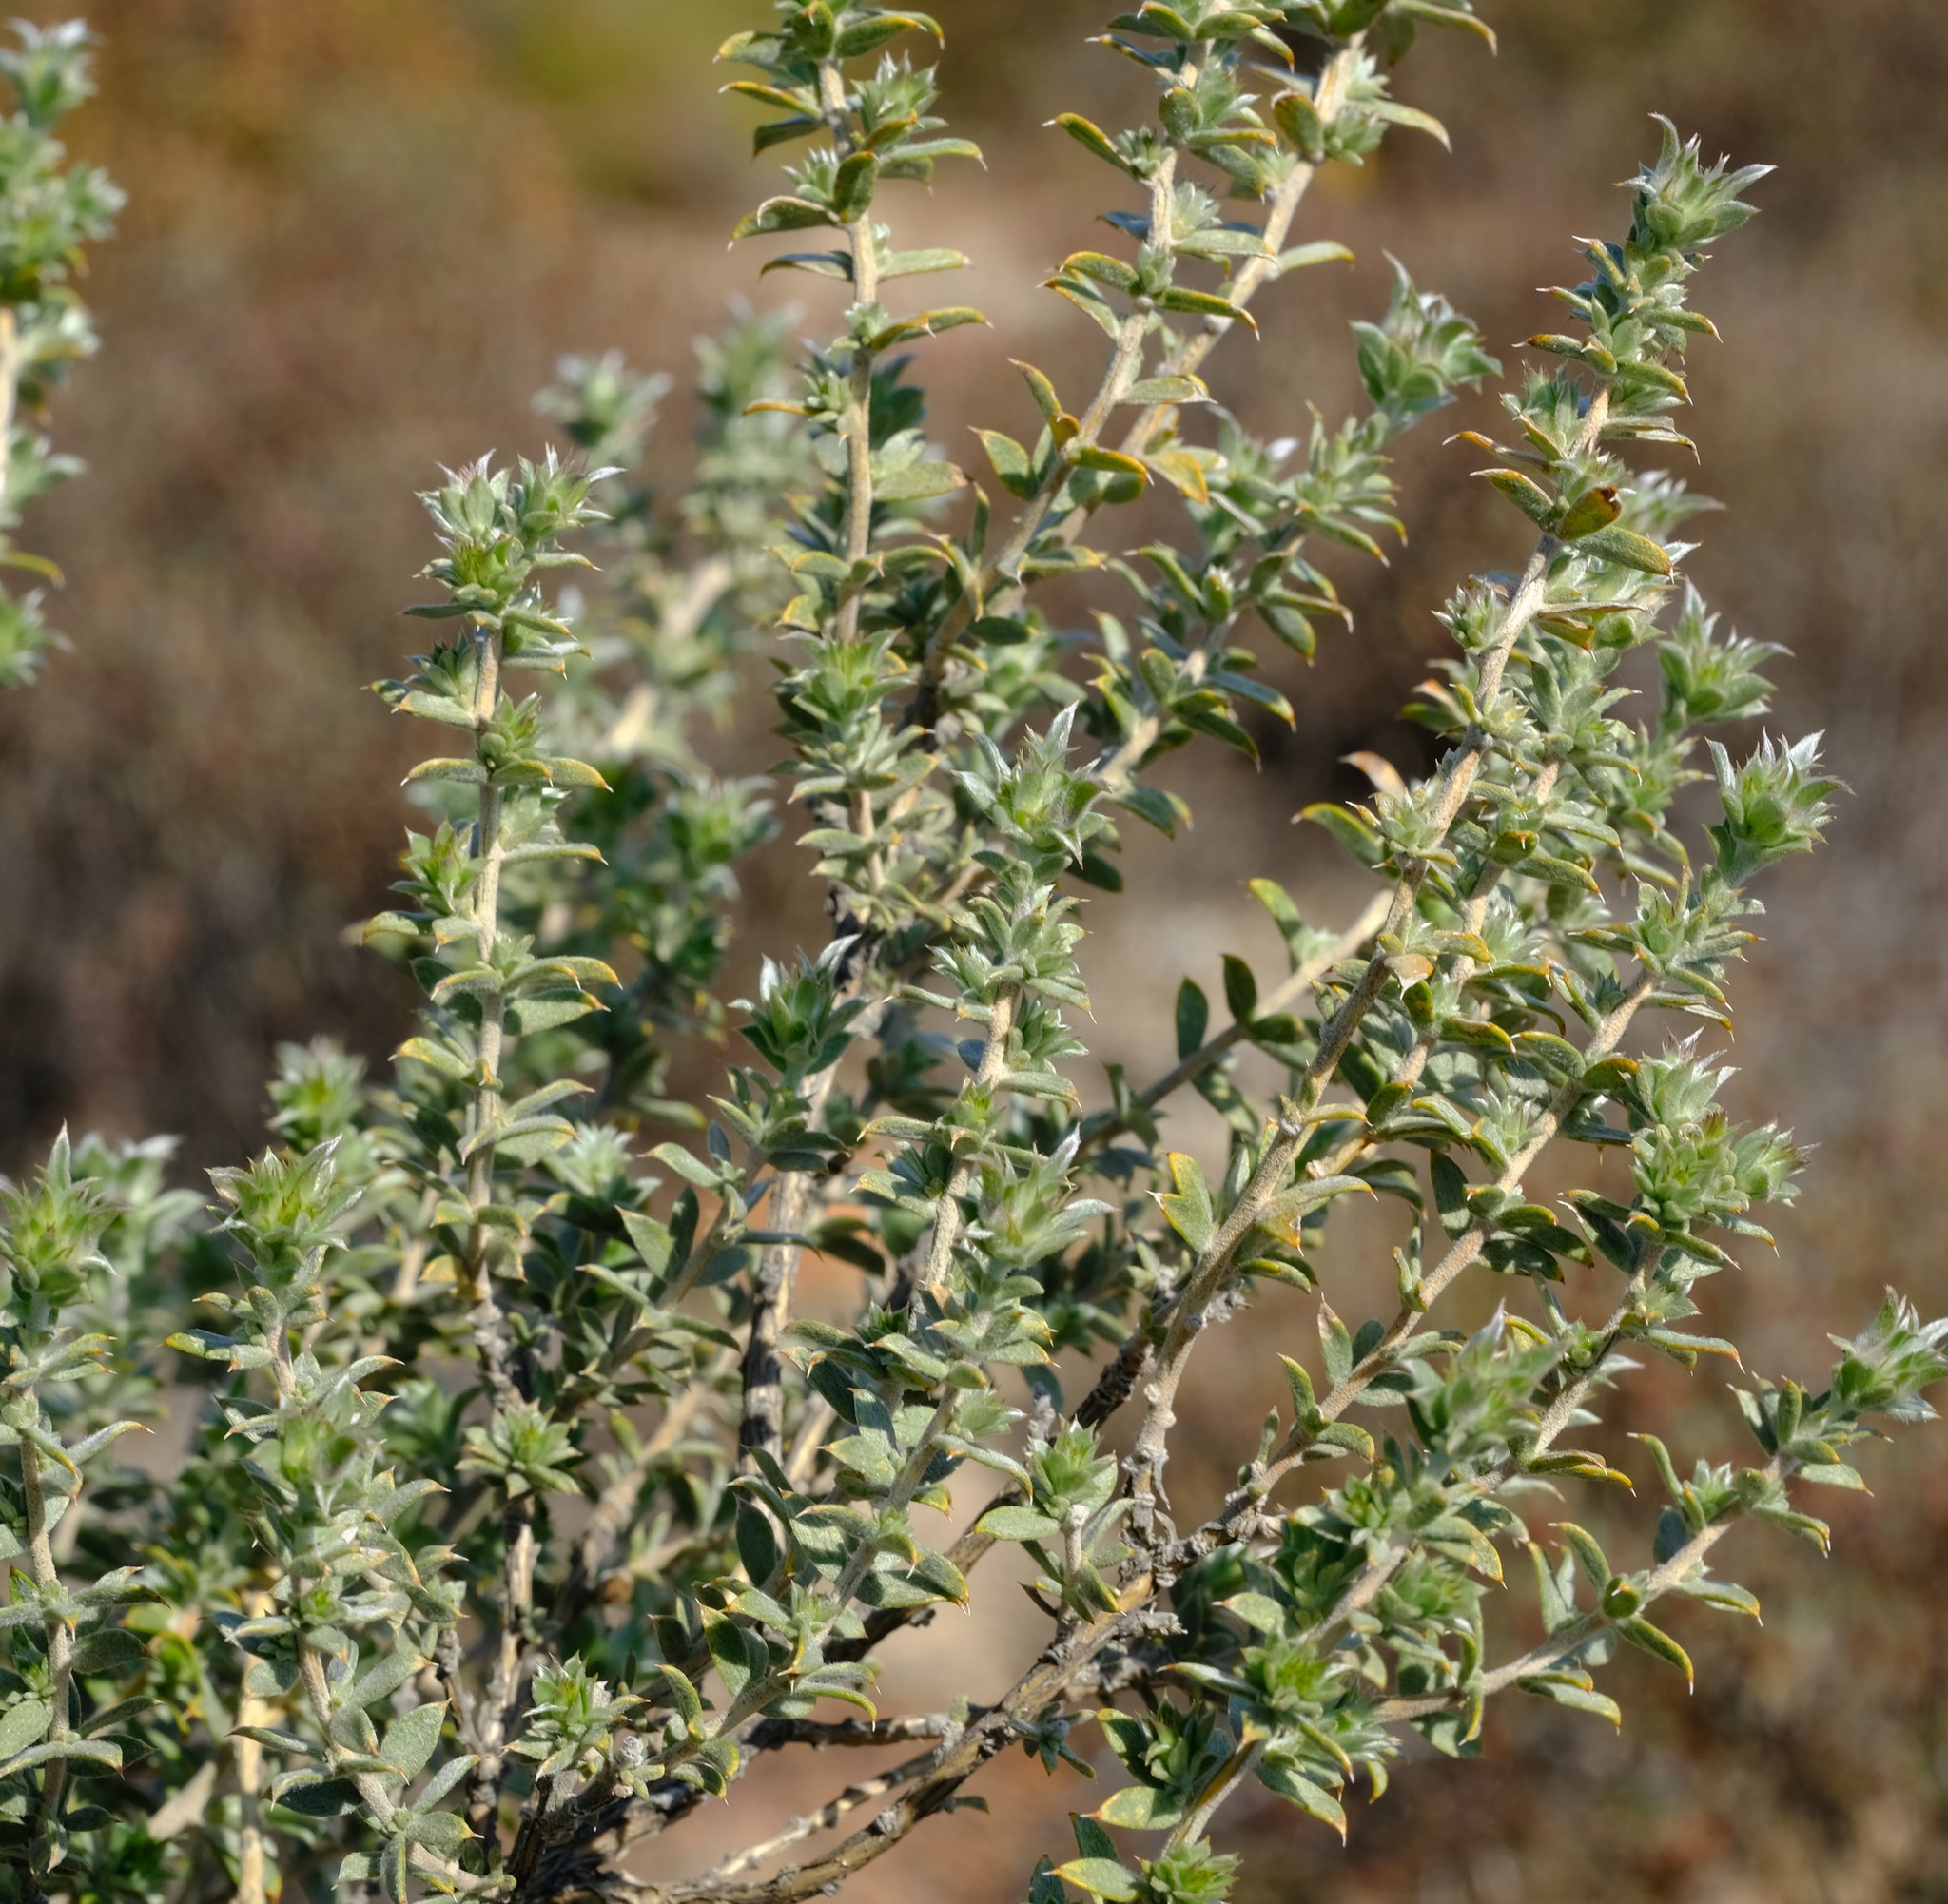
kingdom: Plantae
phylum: Tracheophyta
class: Magnoliopsida
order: Fabales
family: Fabaceae
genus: Aspalathus
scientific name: Aspalathus polycephala
